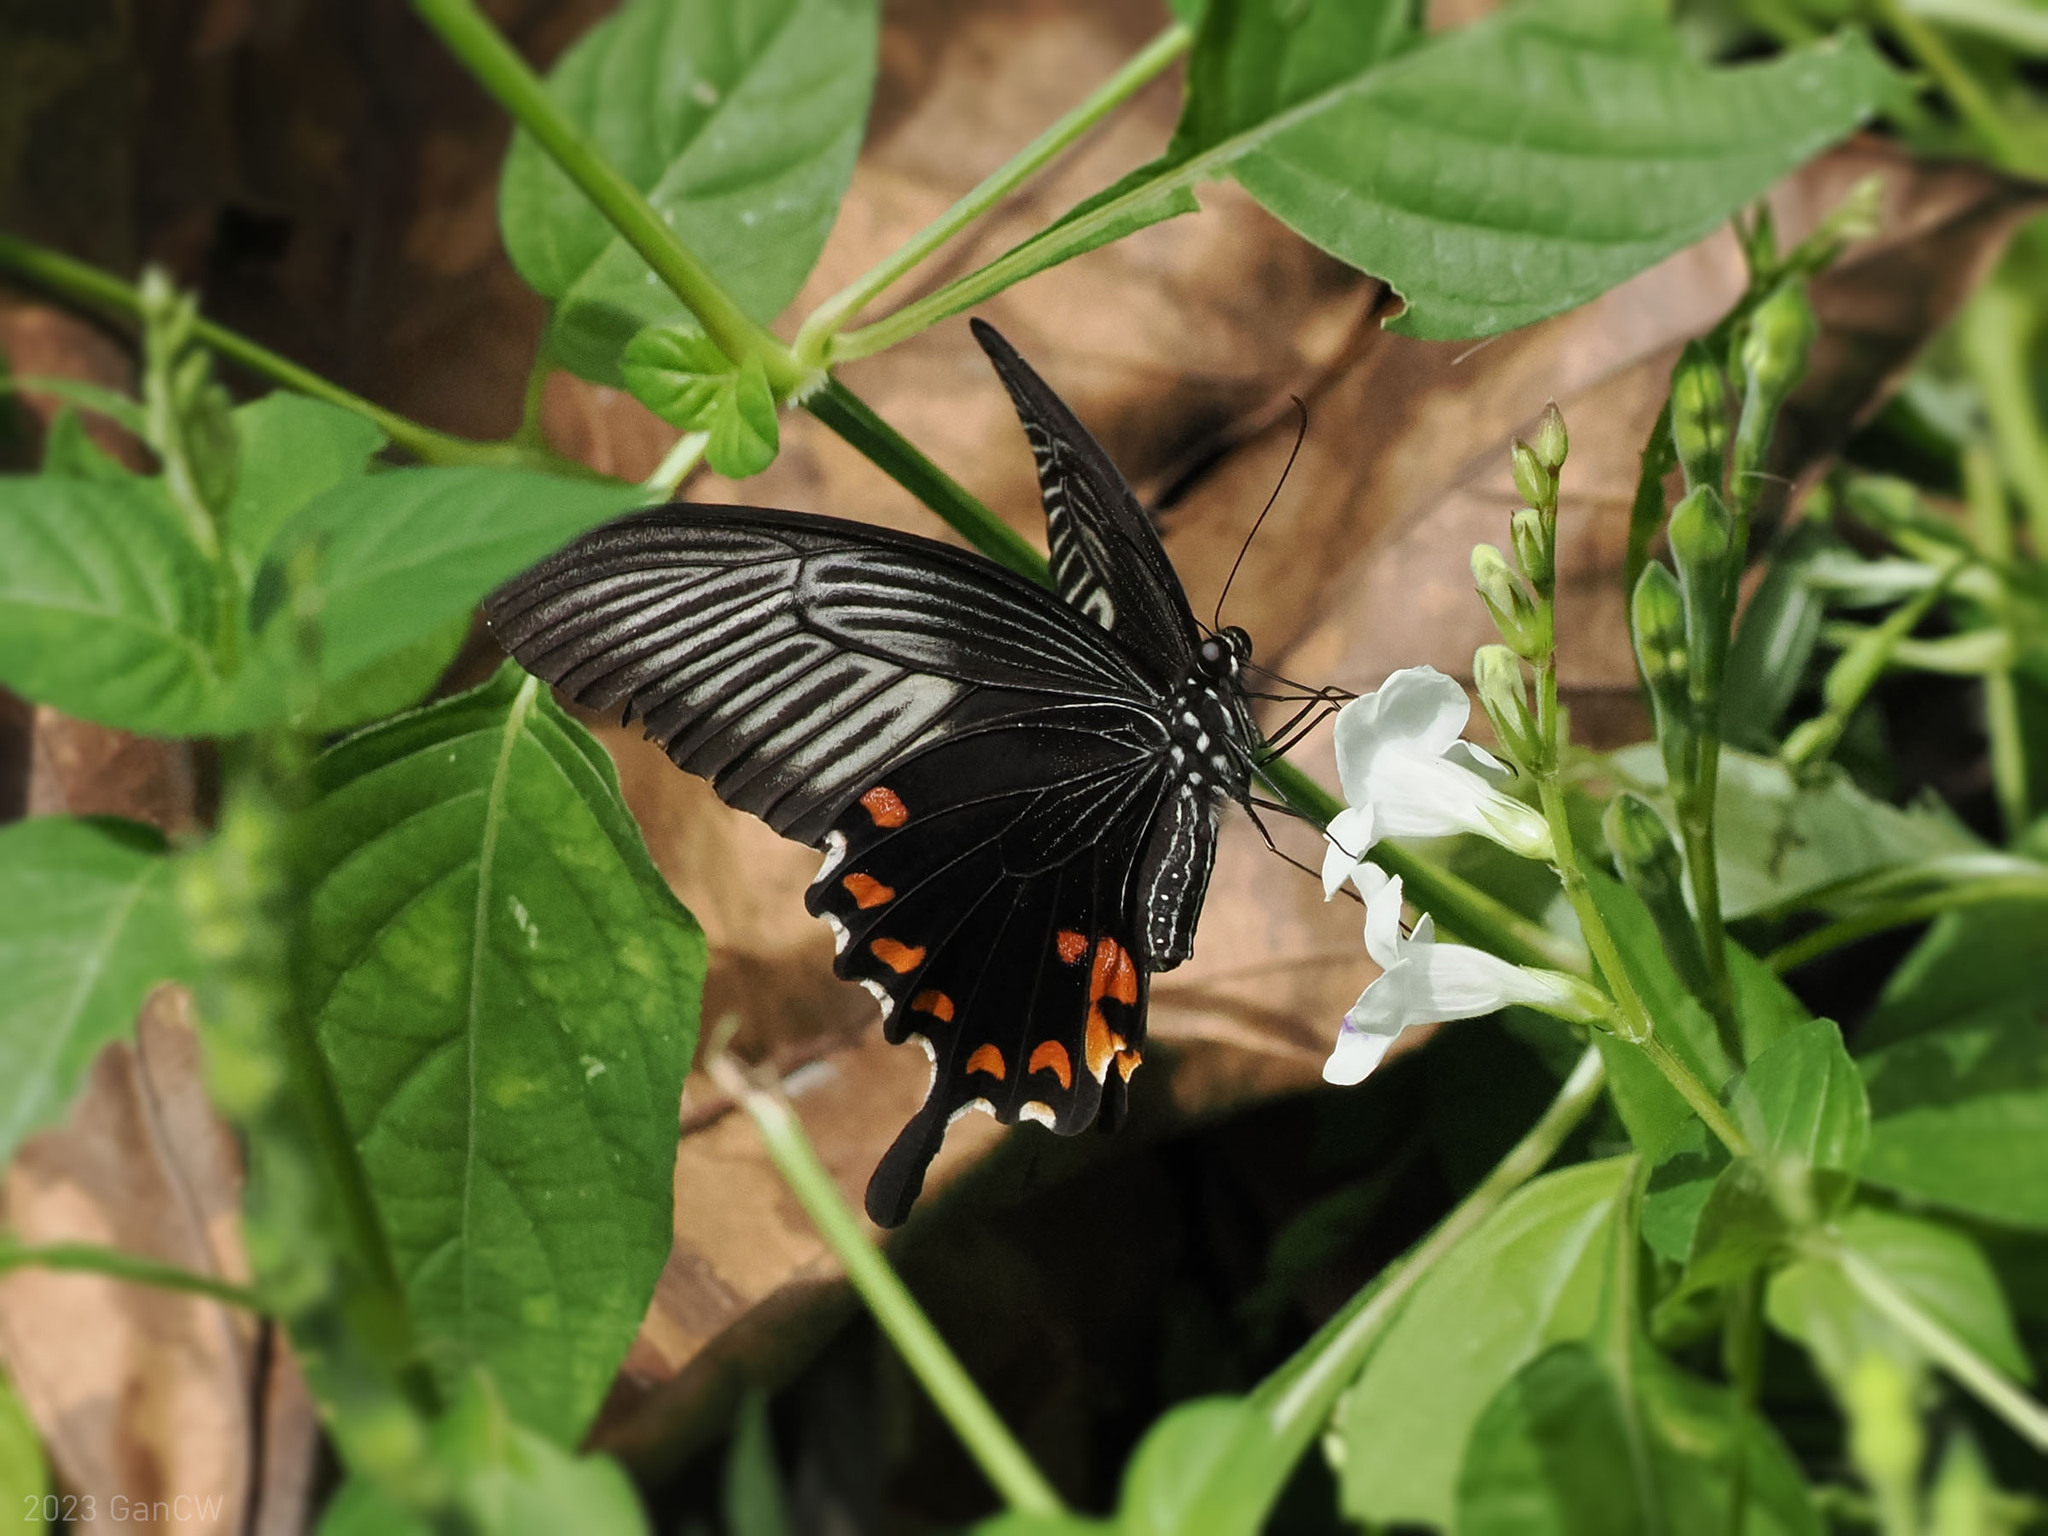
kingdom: Animalia
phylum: Arthropoda
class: Insecta
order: Lepidoptera
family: Papilionidae
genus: Papilio
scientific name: Papilio alphenor
